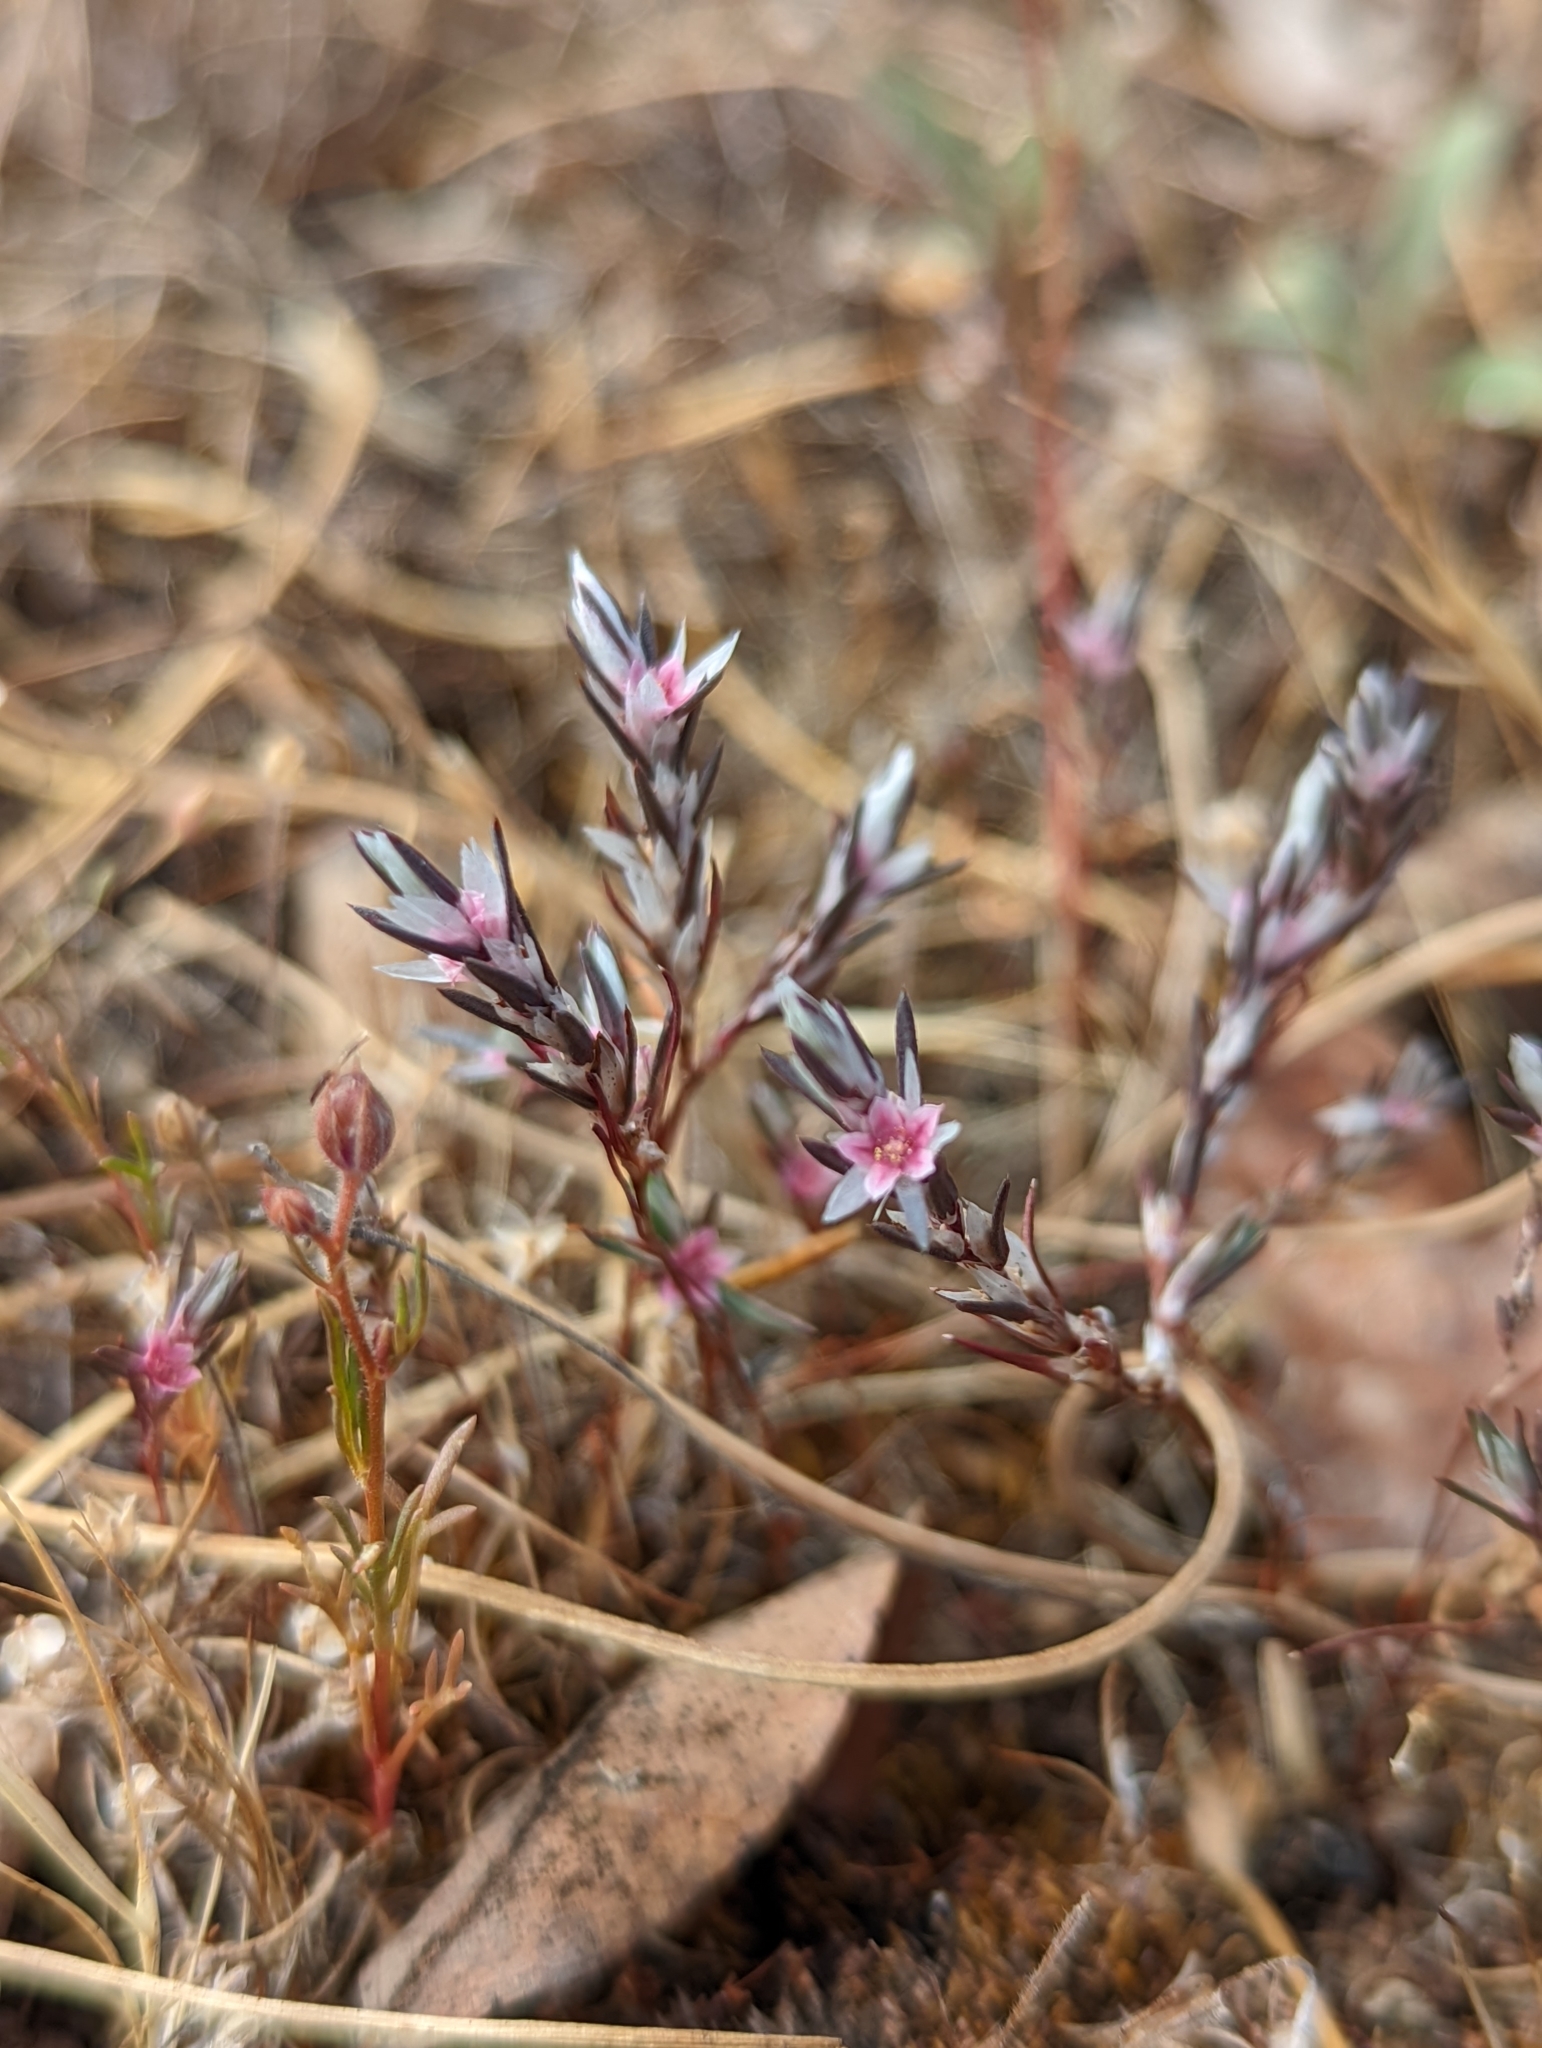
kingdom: Plantae
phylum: Tracheophyta
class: Magnoliopsida
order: Caryophyllales
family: Polygonaceae
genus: Polygonum
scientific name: Polygonum bidwelliae
